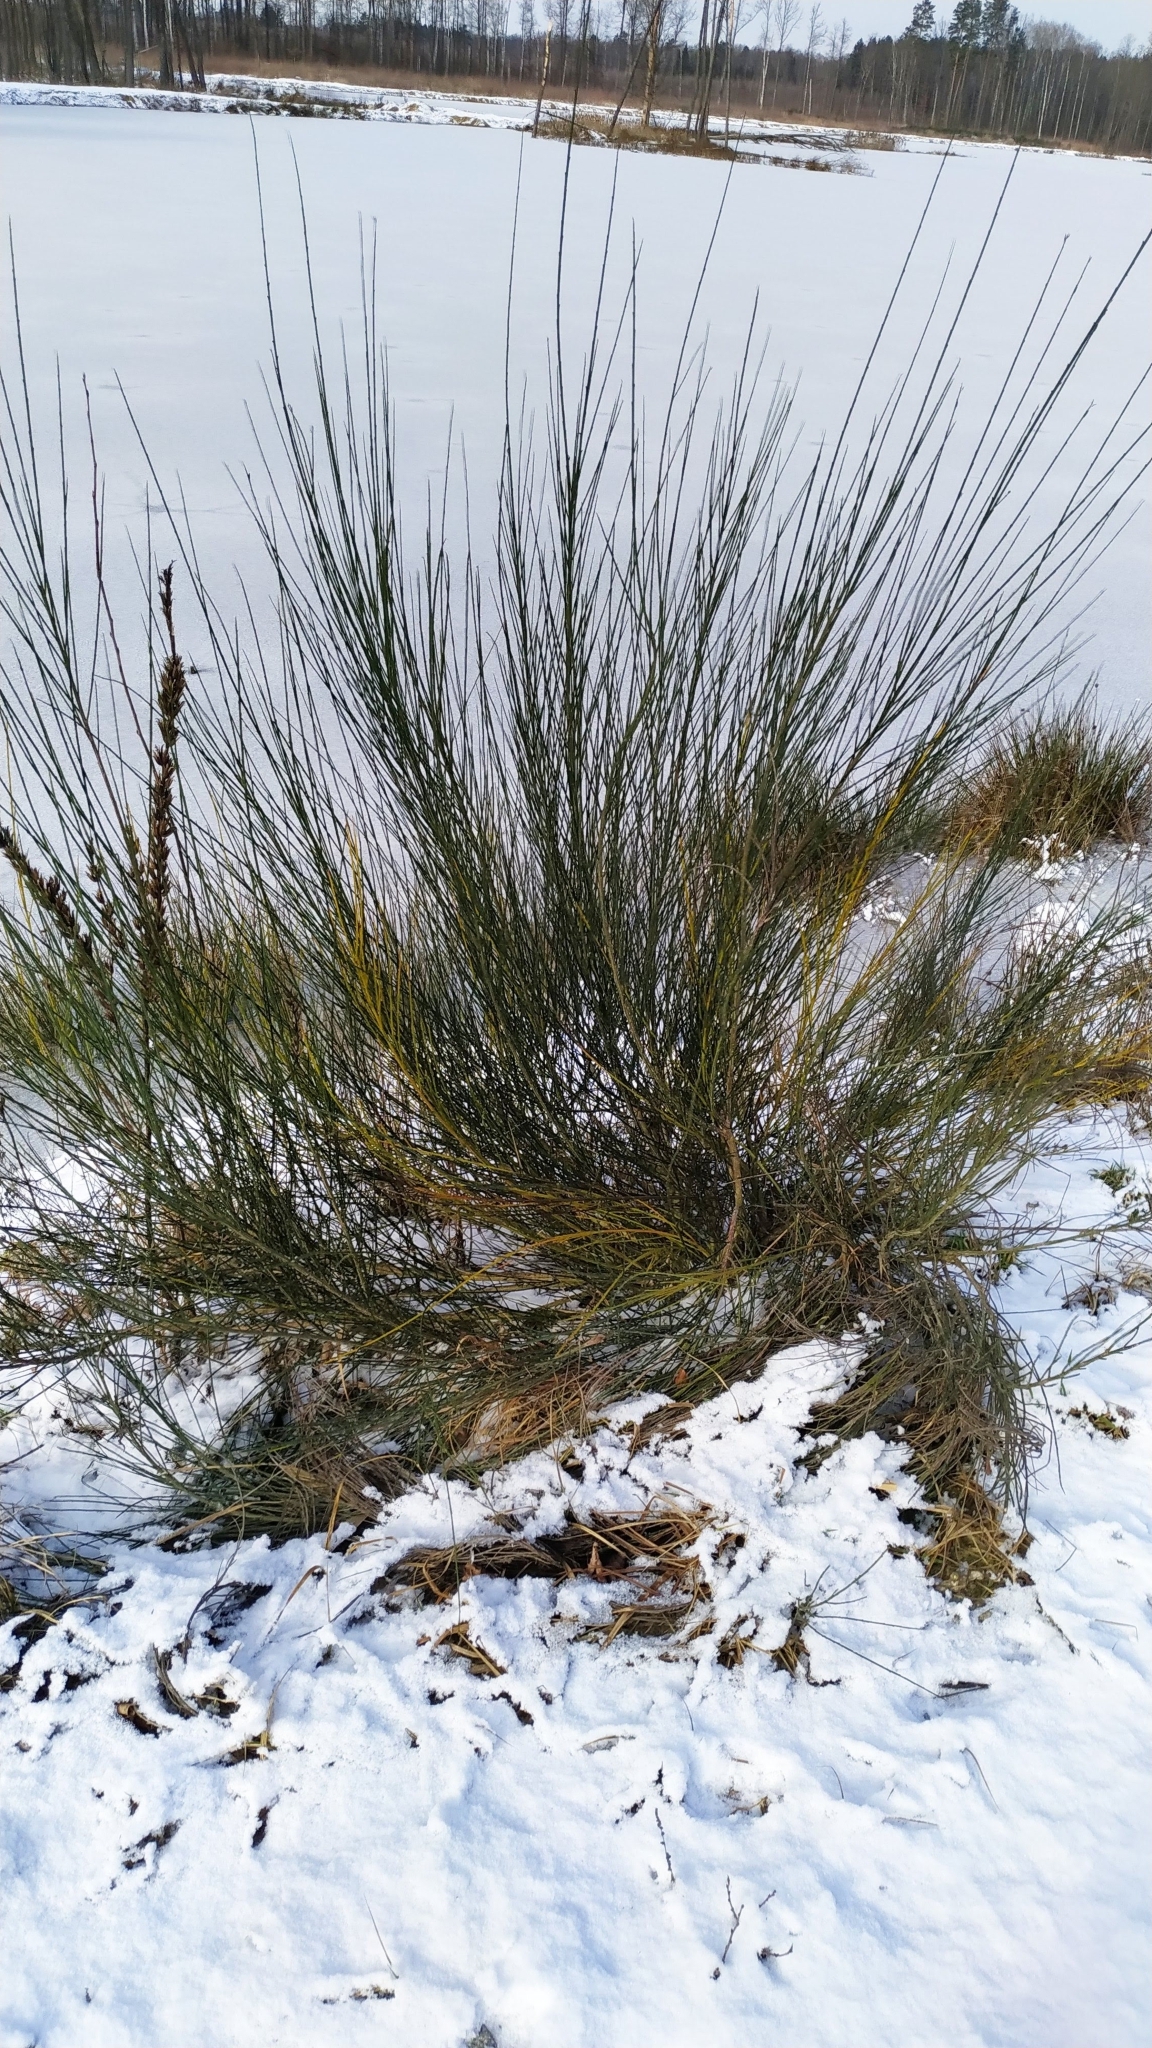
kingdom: Plantae
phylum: Tracheophyta
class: Magnoliopsida
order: Fabales
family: Fabaceae
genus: Cytisus
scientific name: Cytisus scoparius
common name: Scotch broom
